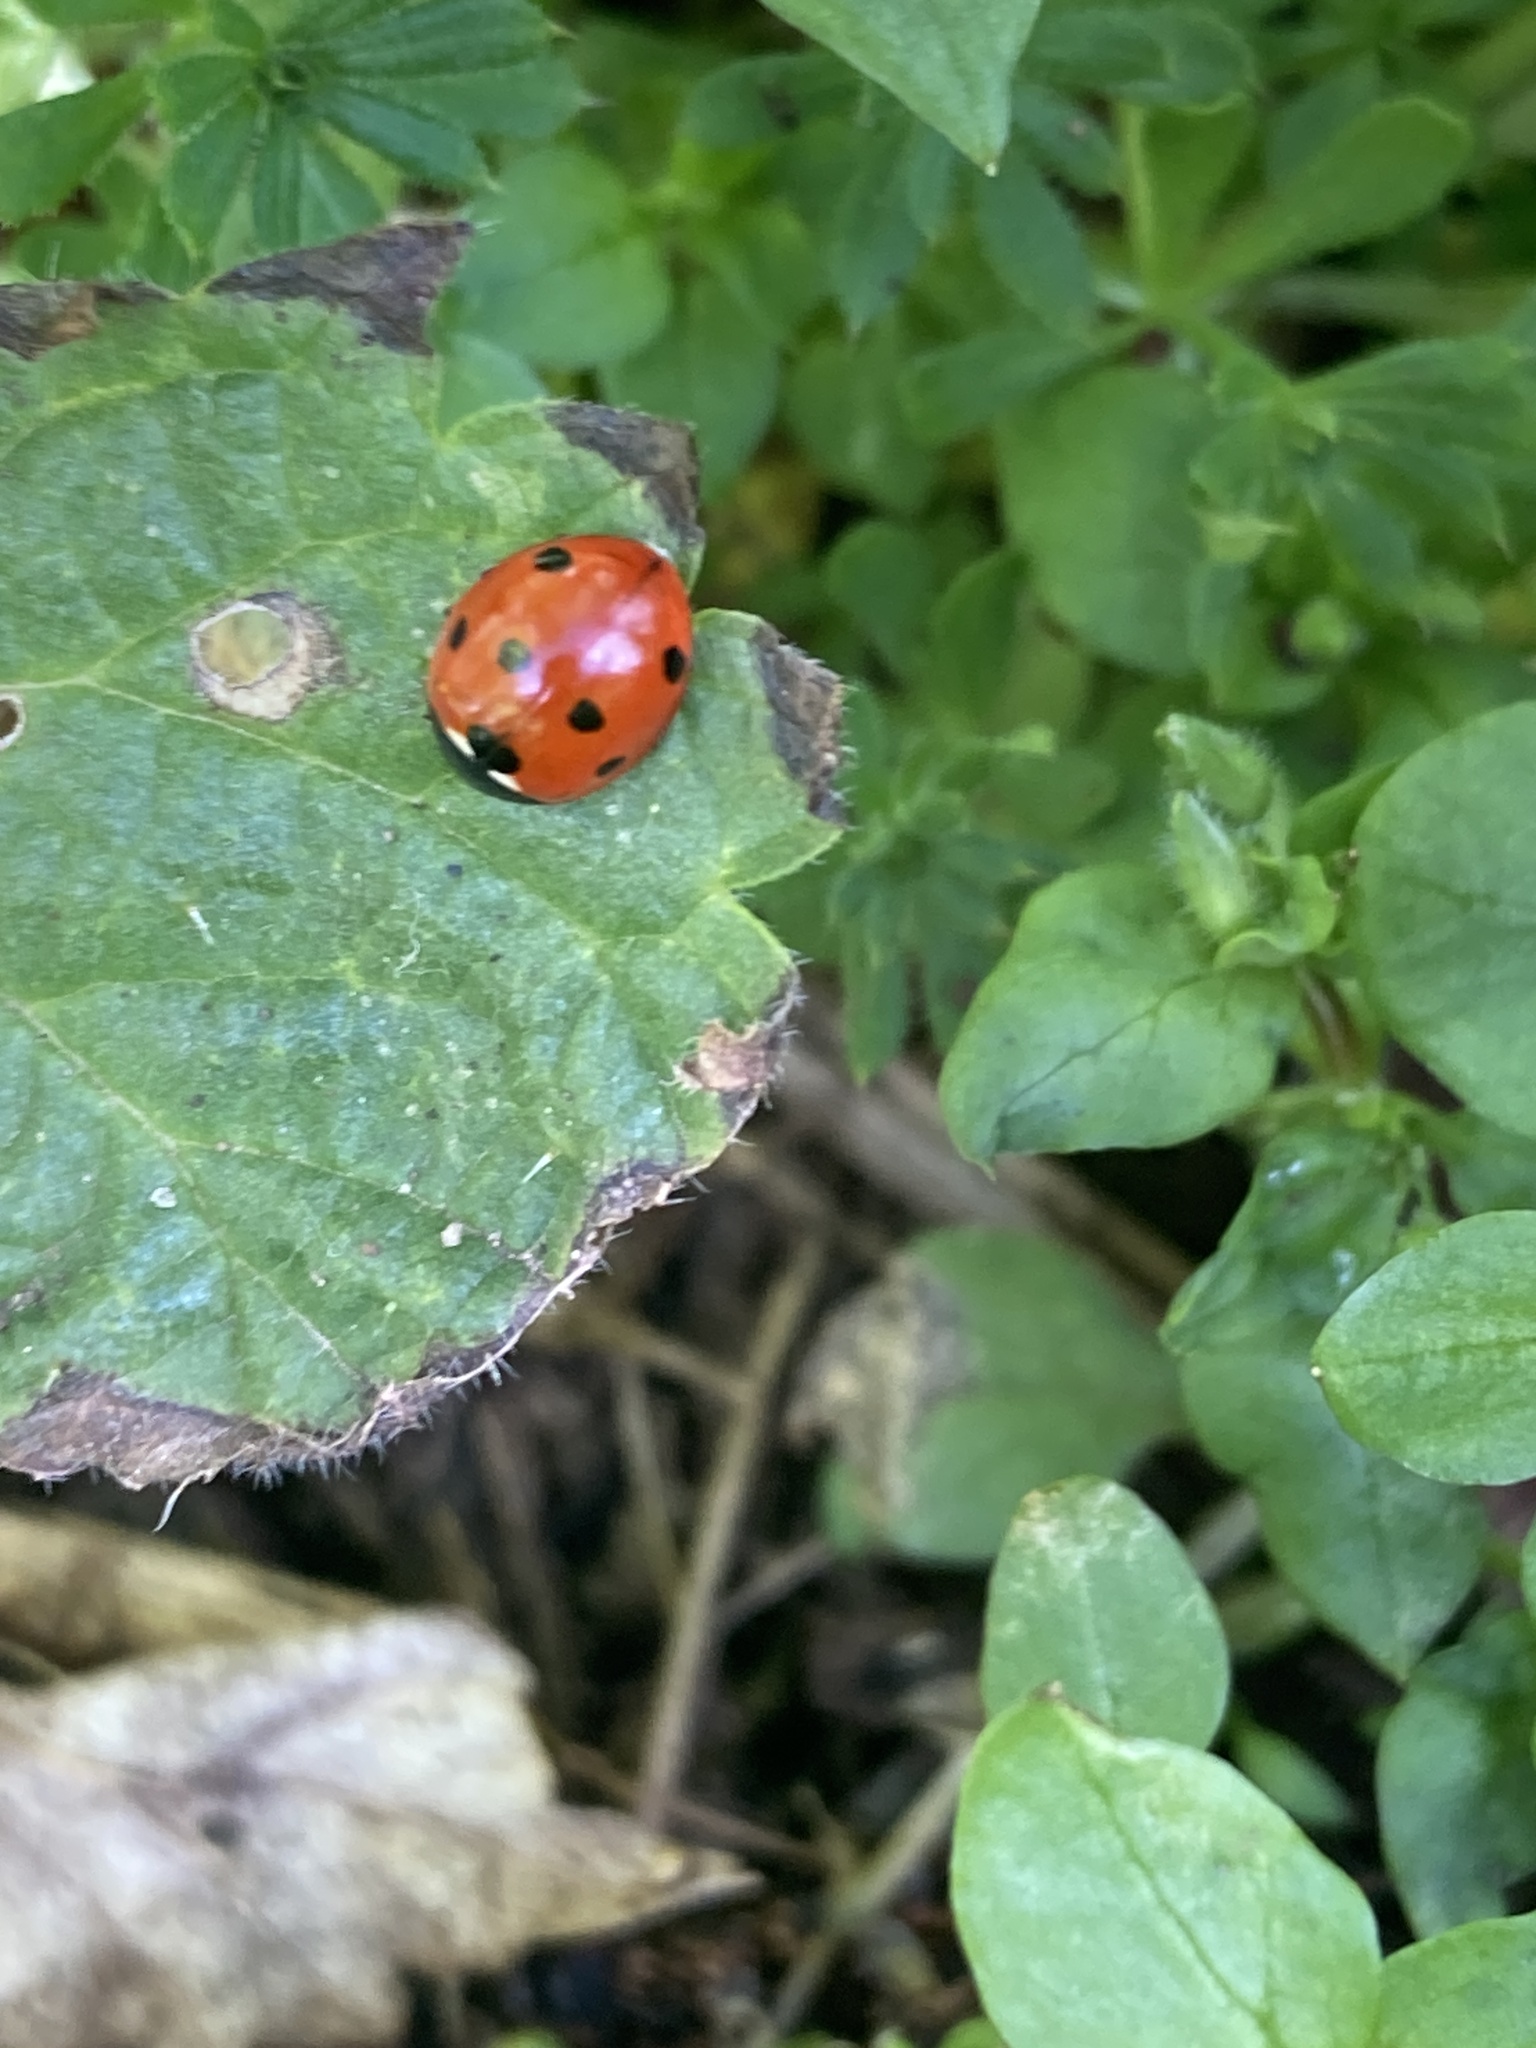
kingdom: Animalia
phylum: Arthropoda
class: Insecta
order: Coleoptera
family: Coccinellidae
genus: Coccinella
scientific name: Coccinella septempunctata
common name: Sevenspotted lady beetle
